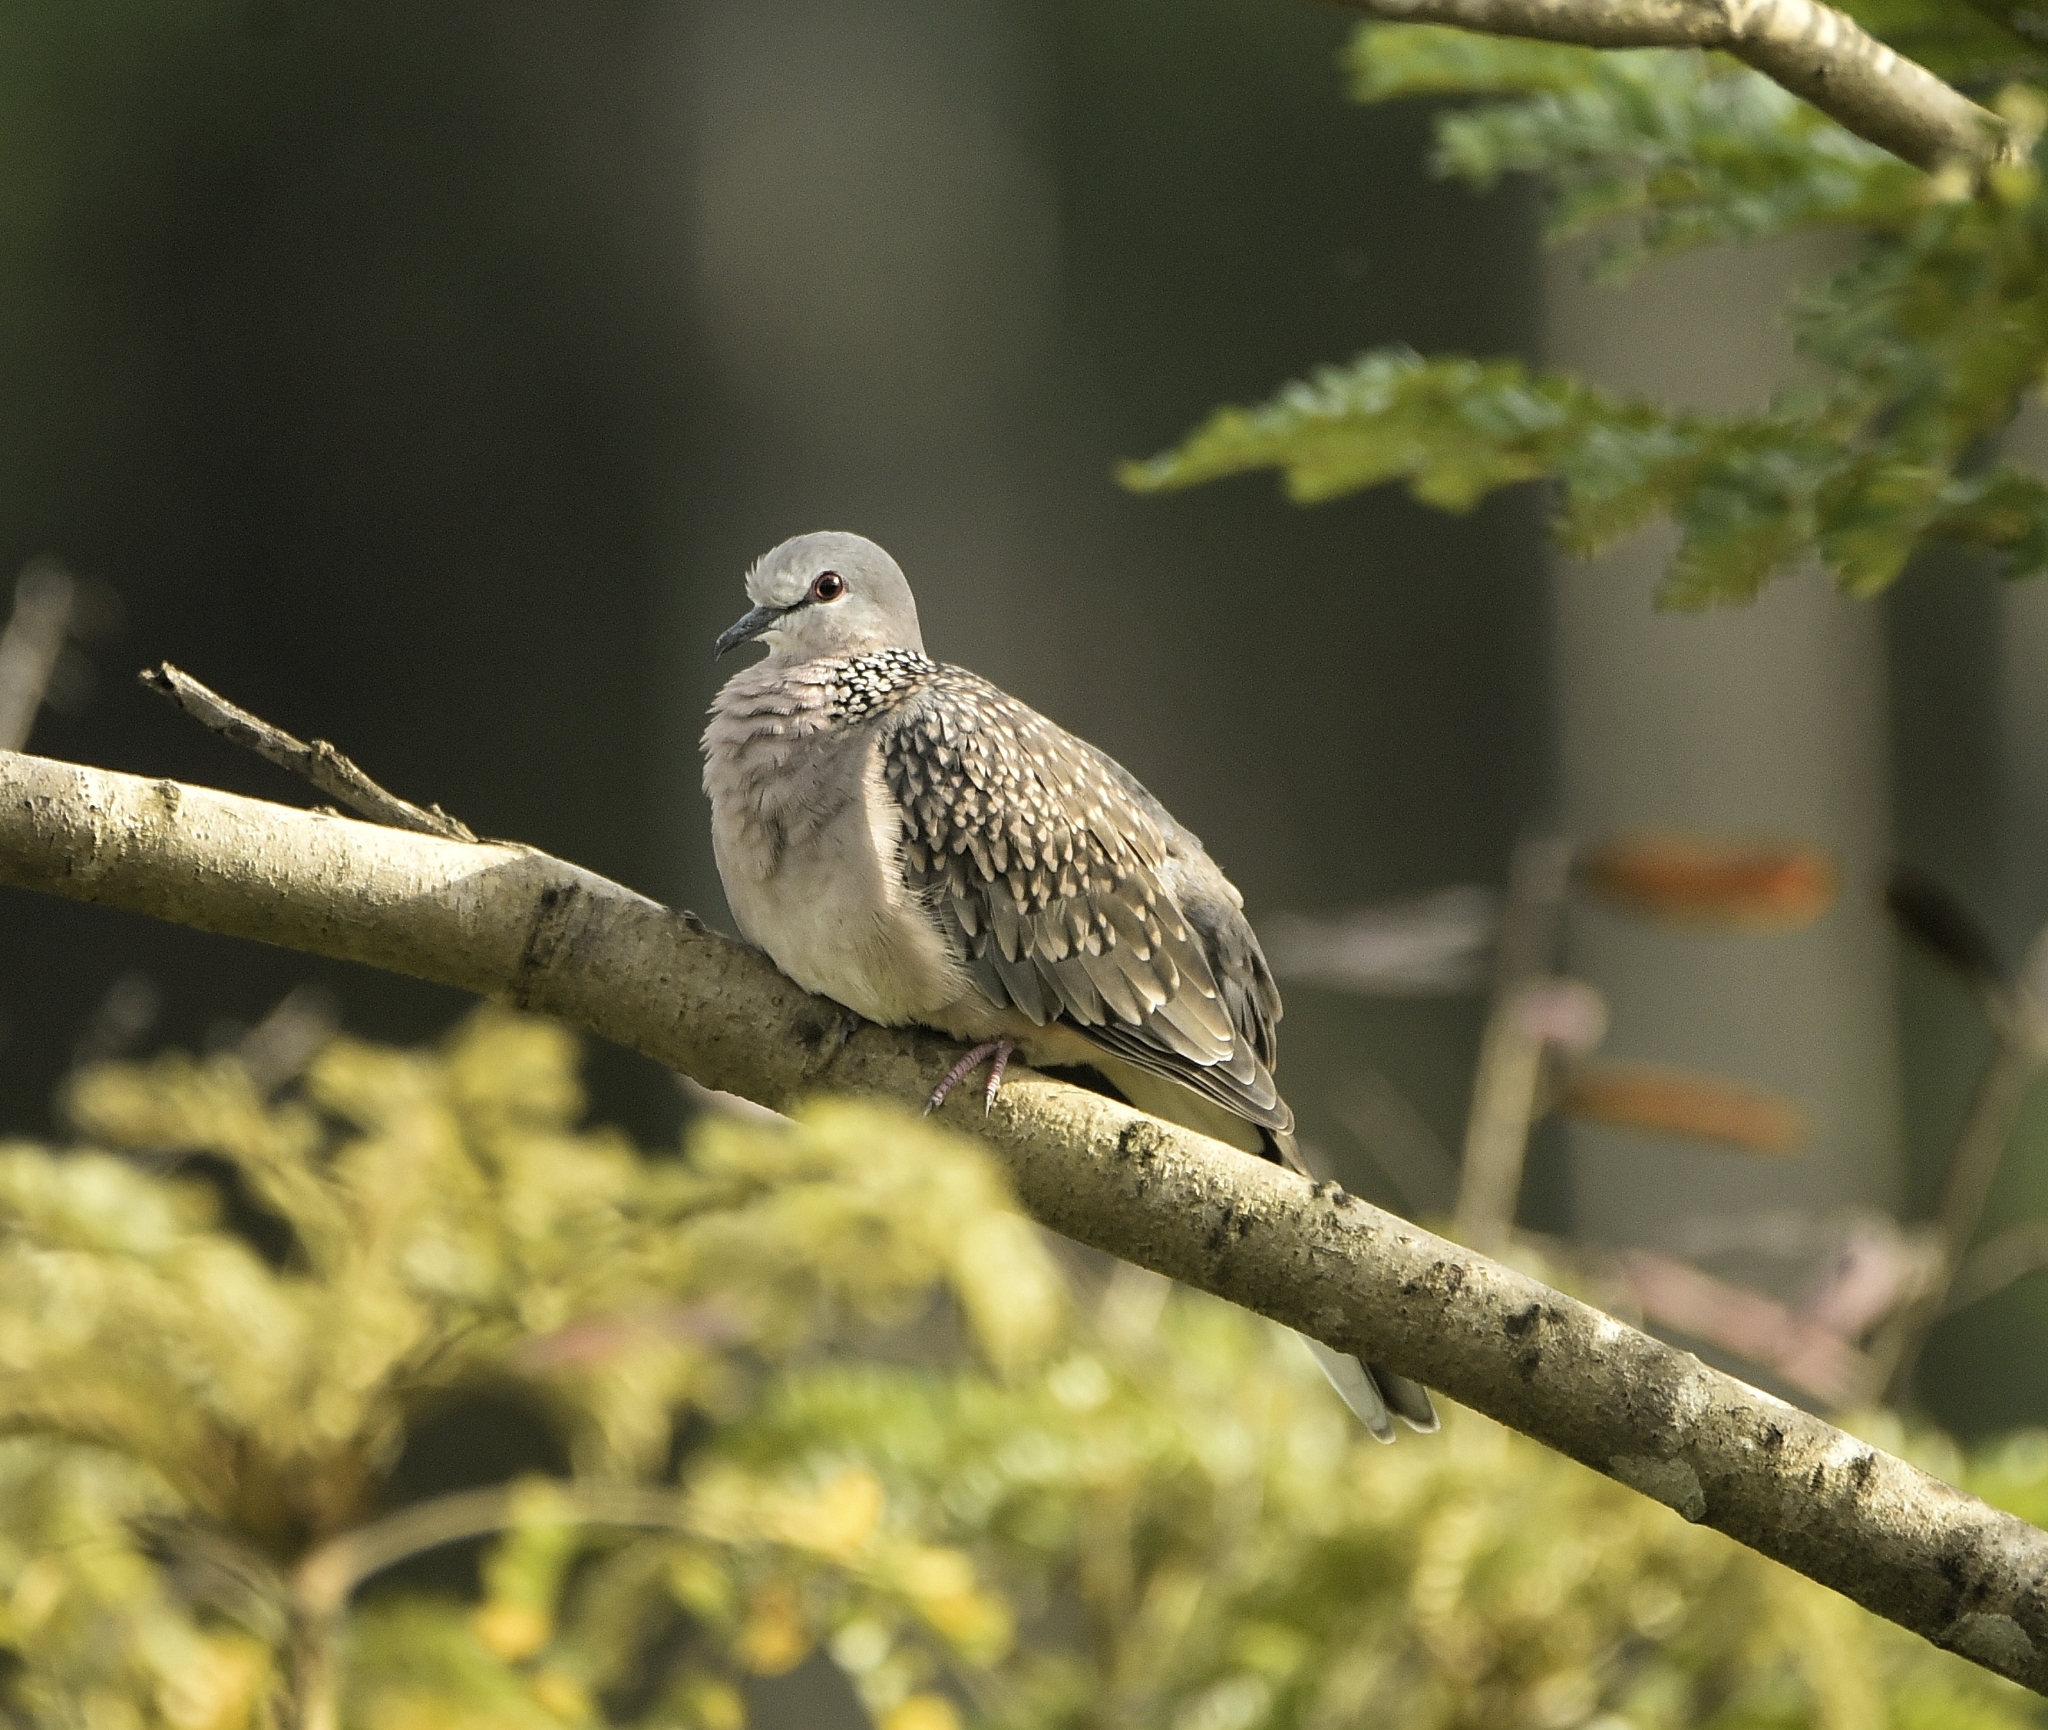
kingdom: Animalia
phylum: Chordata
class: Aves
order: Columbiformes
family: Columbidae
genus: Spilopelia
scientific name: Spilopelia chinensis
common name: Spotted dove
